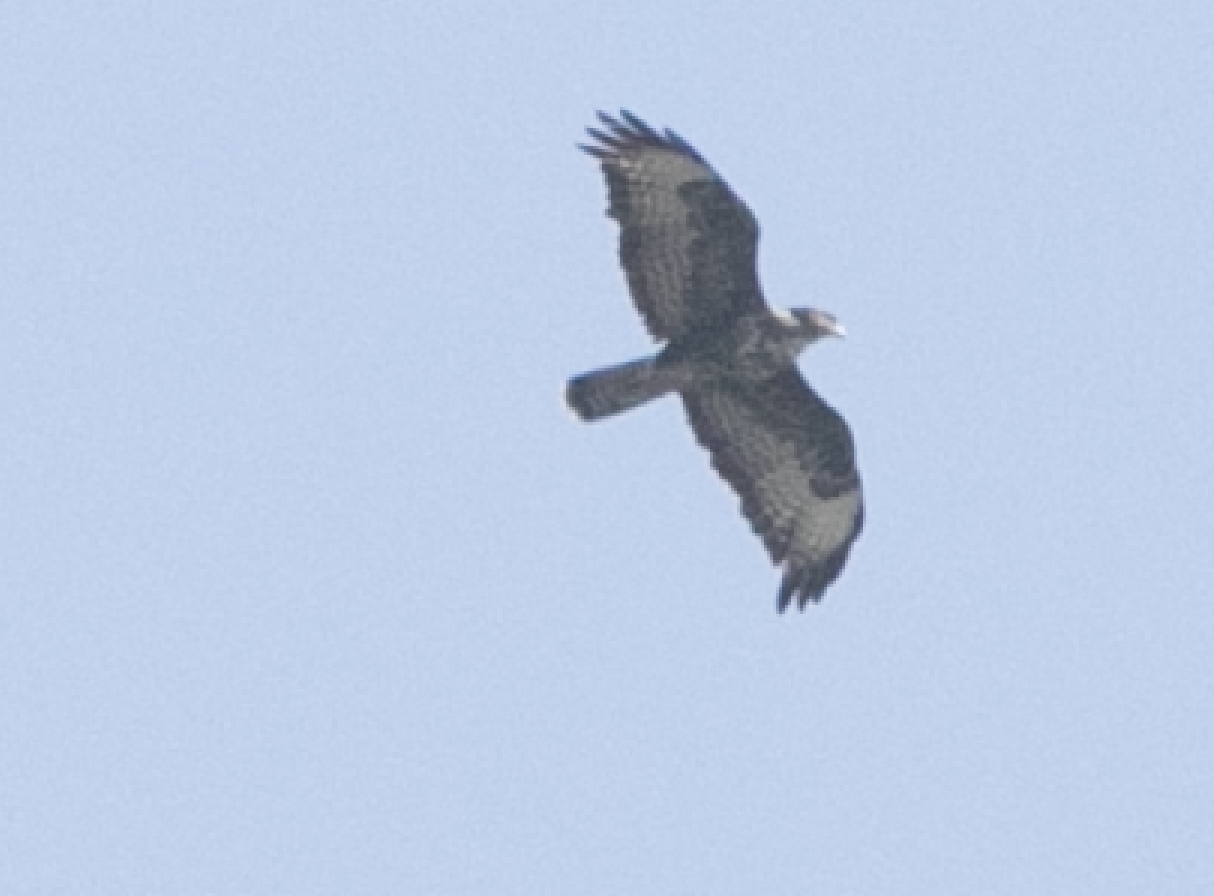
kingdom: Animalia
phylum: Chordata
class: Aves
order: Accipitriformes
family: Accipitridae
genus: Buteo
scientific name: Buteo buteo
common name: Common buzzard
